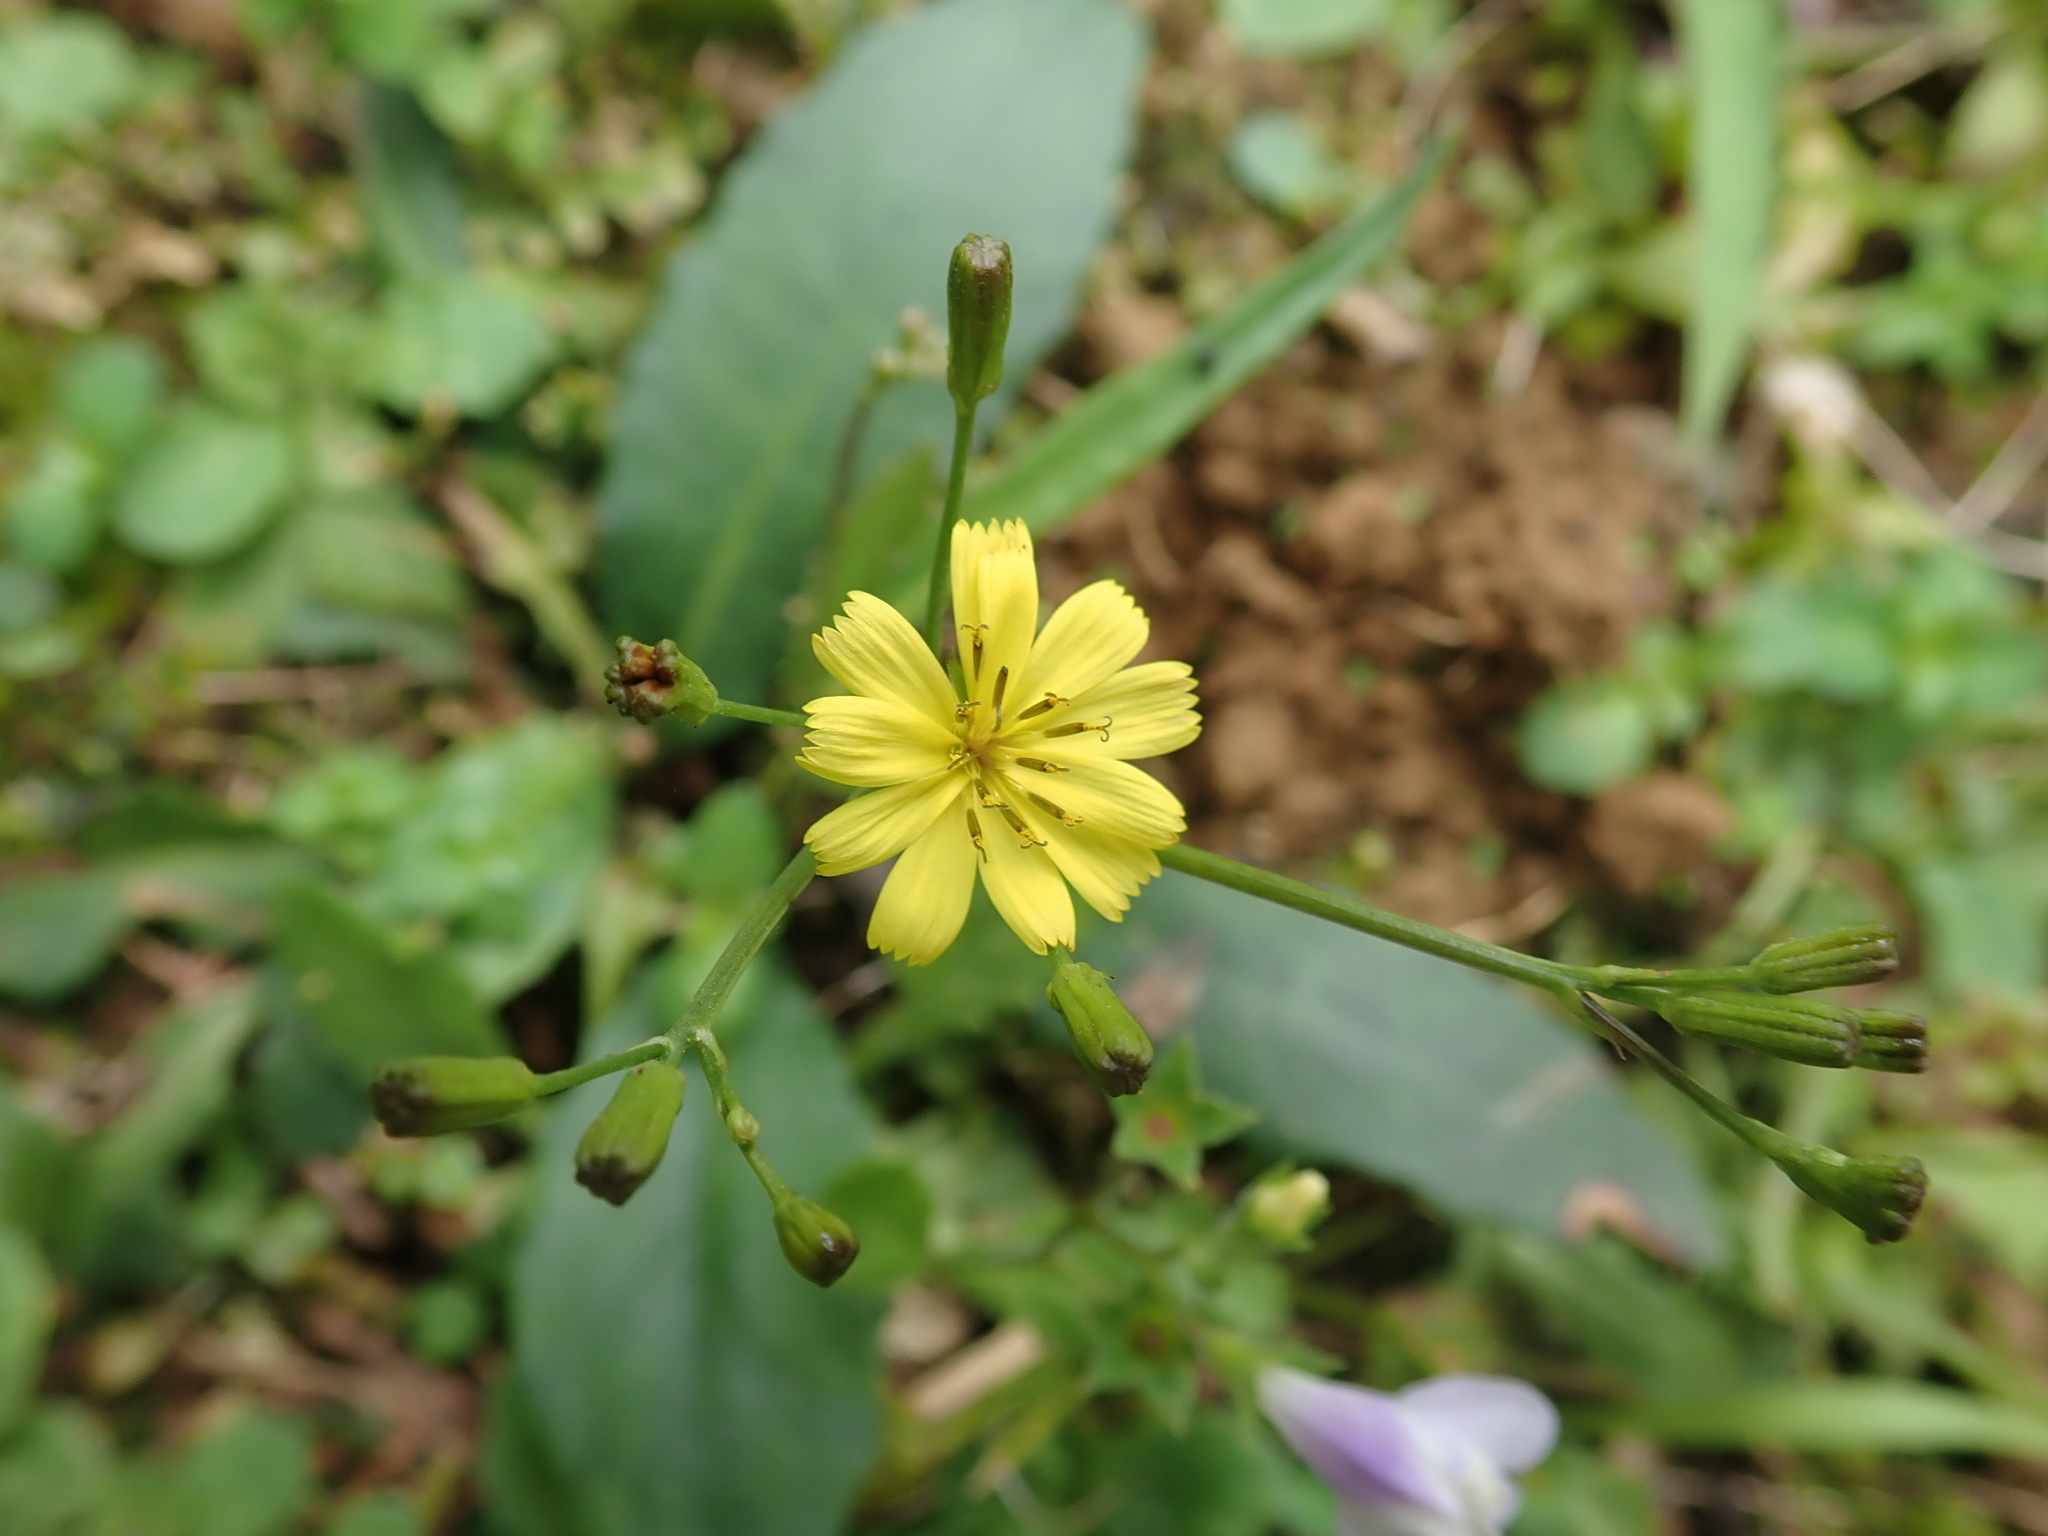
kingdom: Plantae
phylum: Tracheophyta
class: Magnoliopsida
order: Asterales
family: Asteraceae
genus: Ixeridium
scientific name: Ixeridium laevigatum
